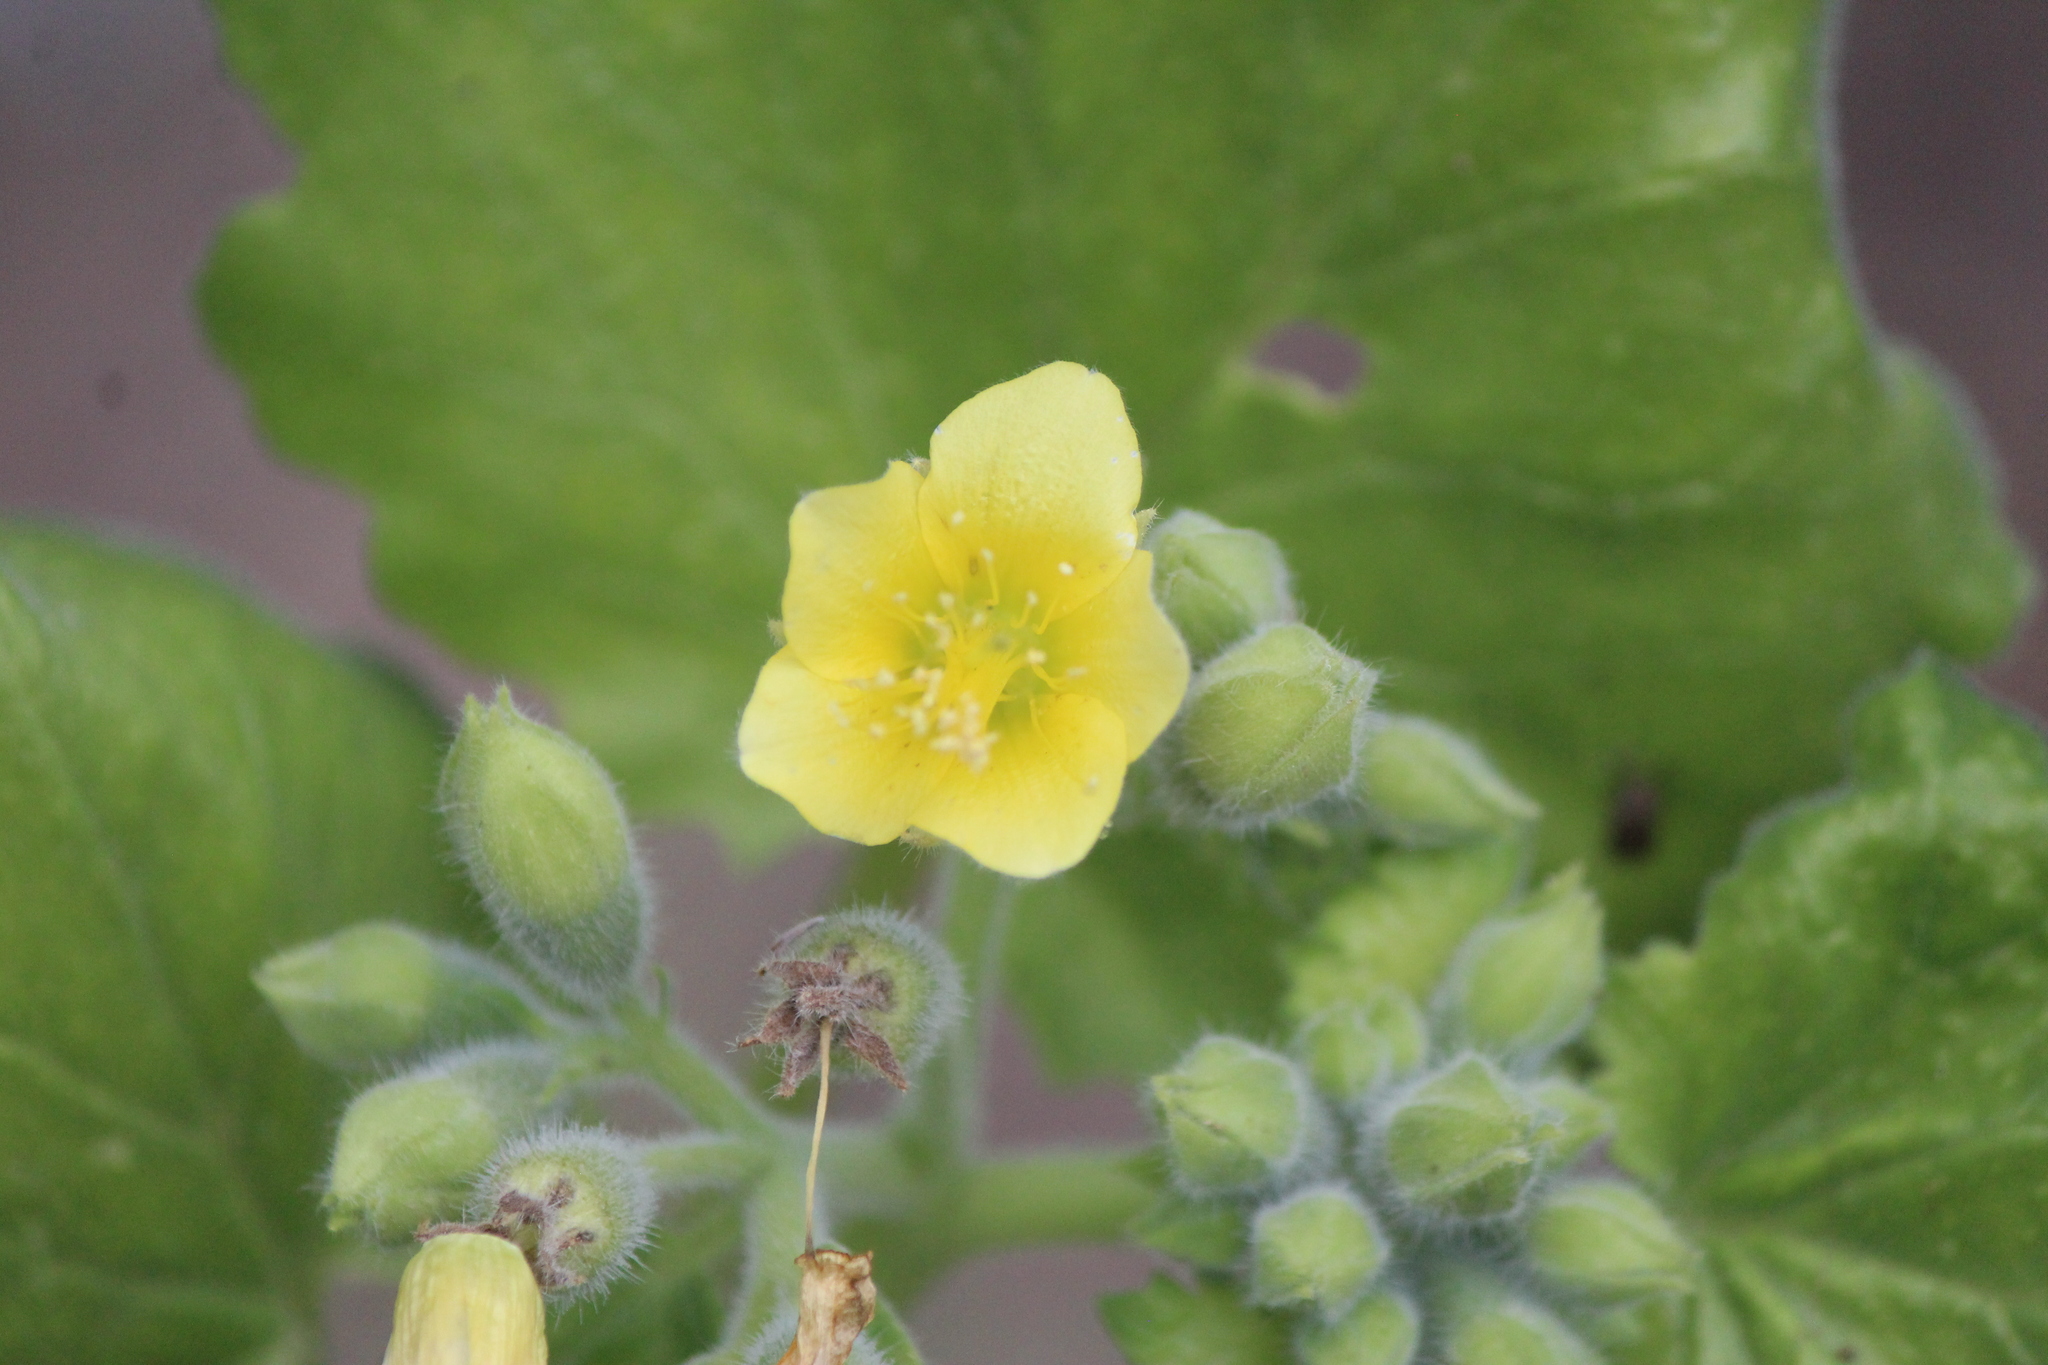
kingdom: Plantae
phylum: Tracheophyta
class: Magnoliopsida
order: Cornales
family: Loasaceae
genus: Eucnide
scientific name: Eucnide hirta
